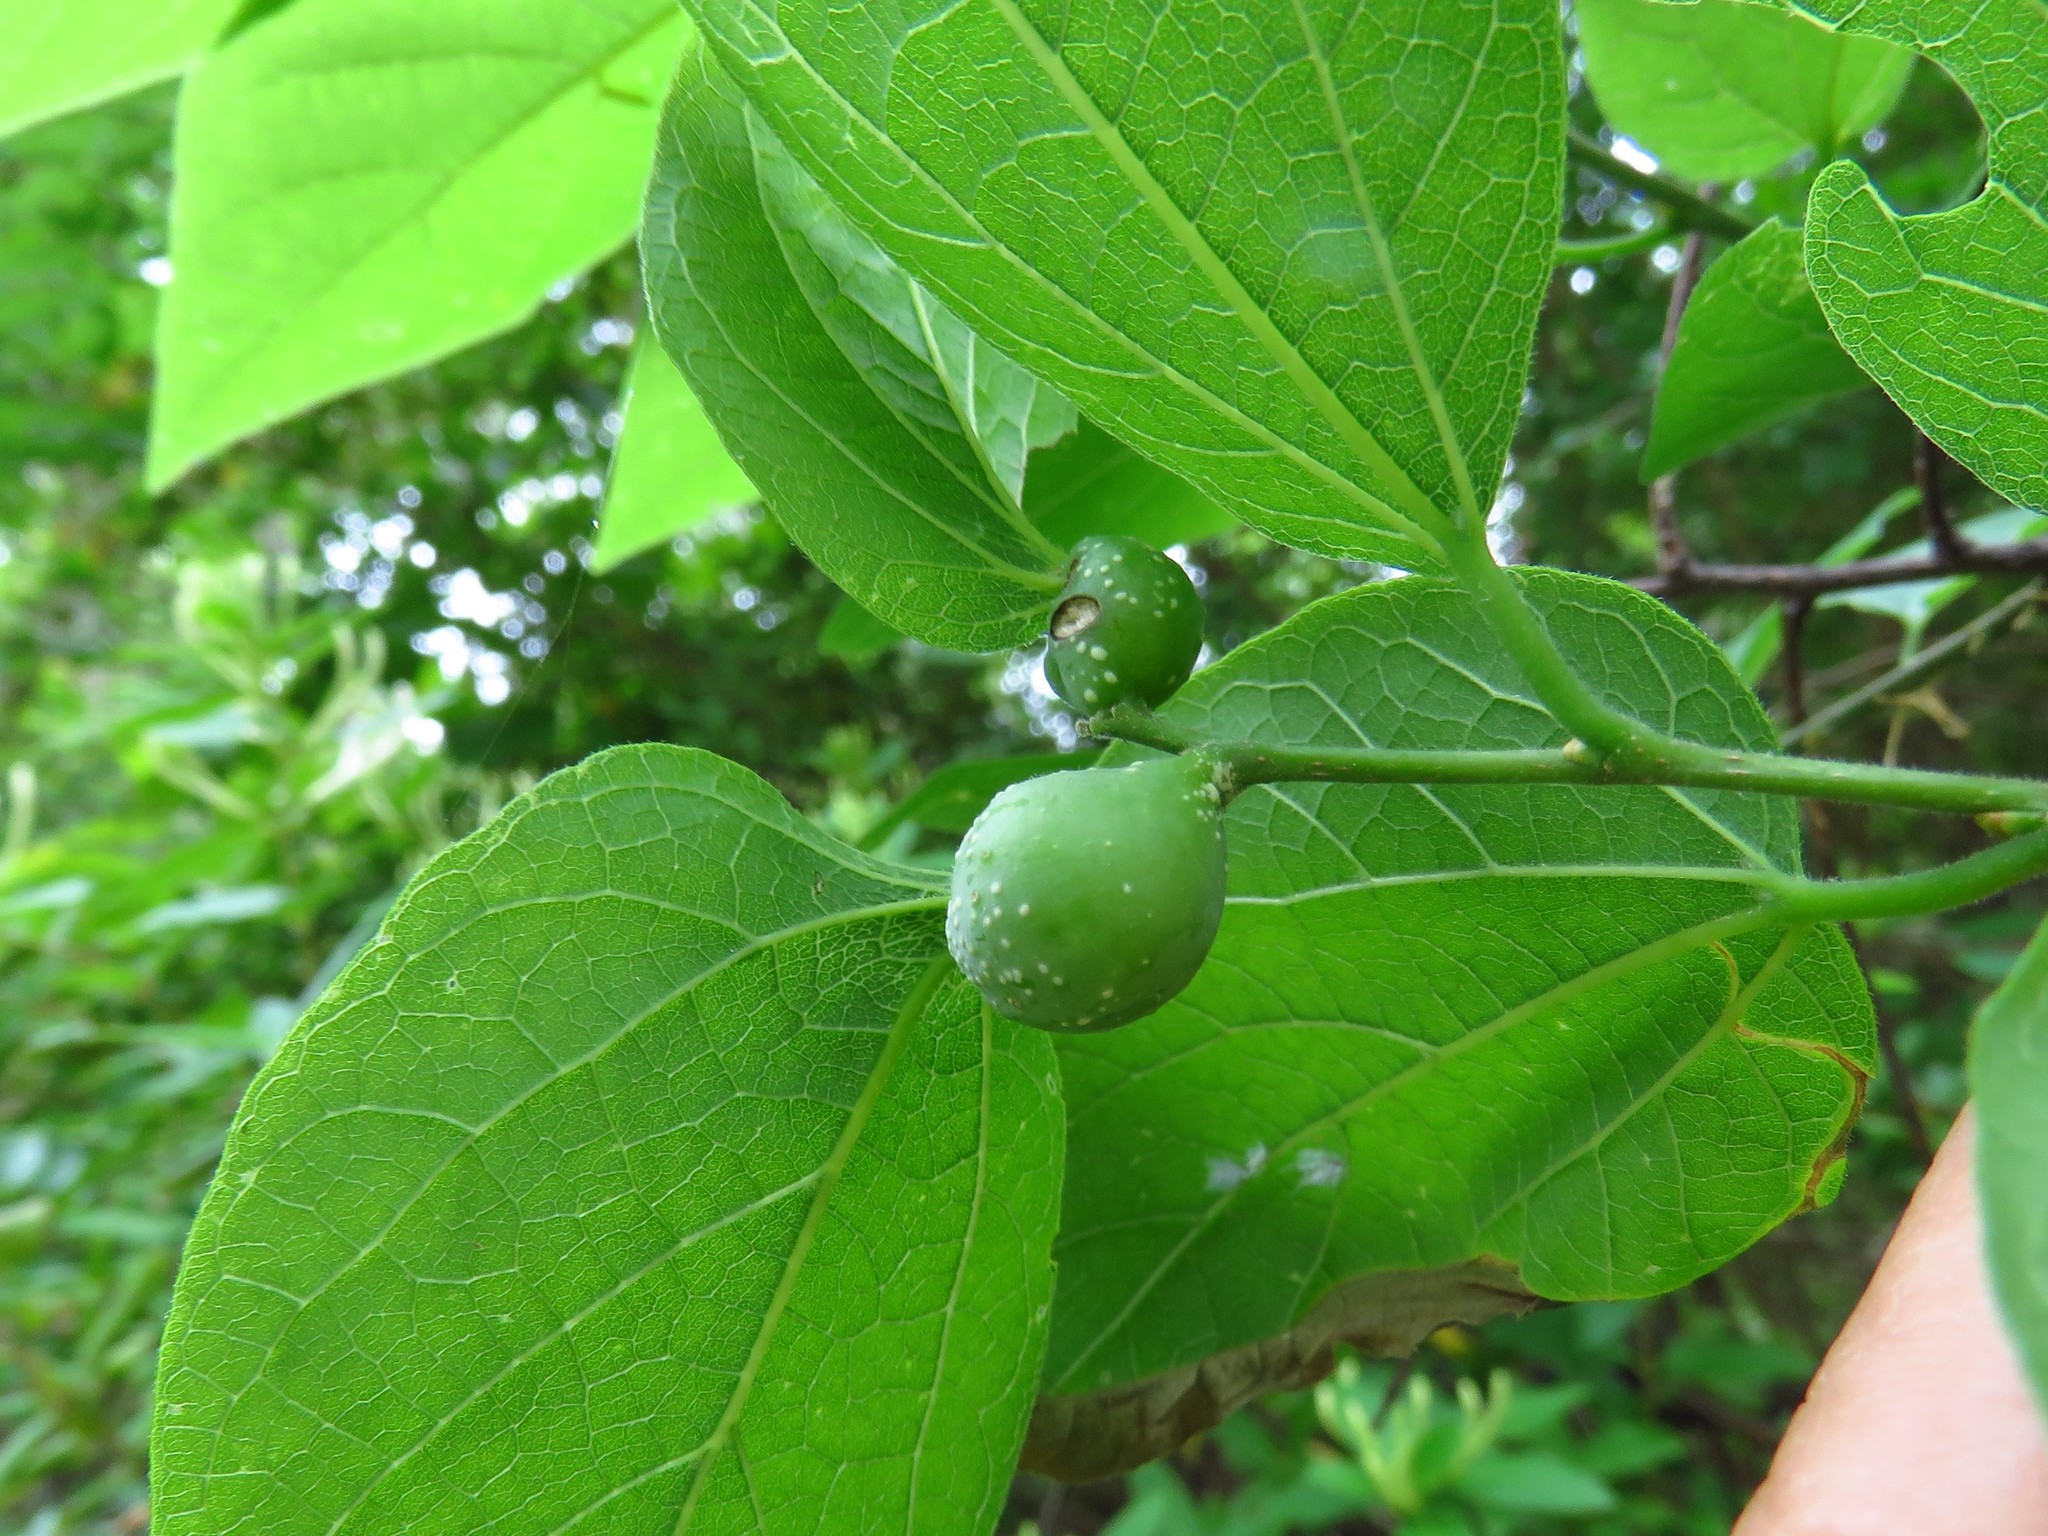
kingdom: Animalia
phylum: Arthropoda
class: Insecta
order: Hemiptera
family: Aphalaridae
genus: Pachypsylla
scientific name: Pachypsylla venusta
